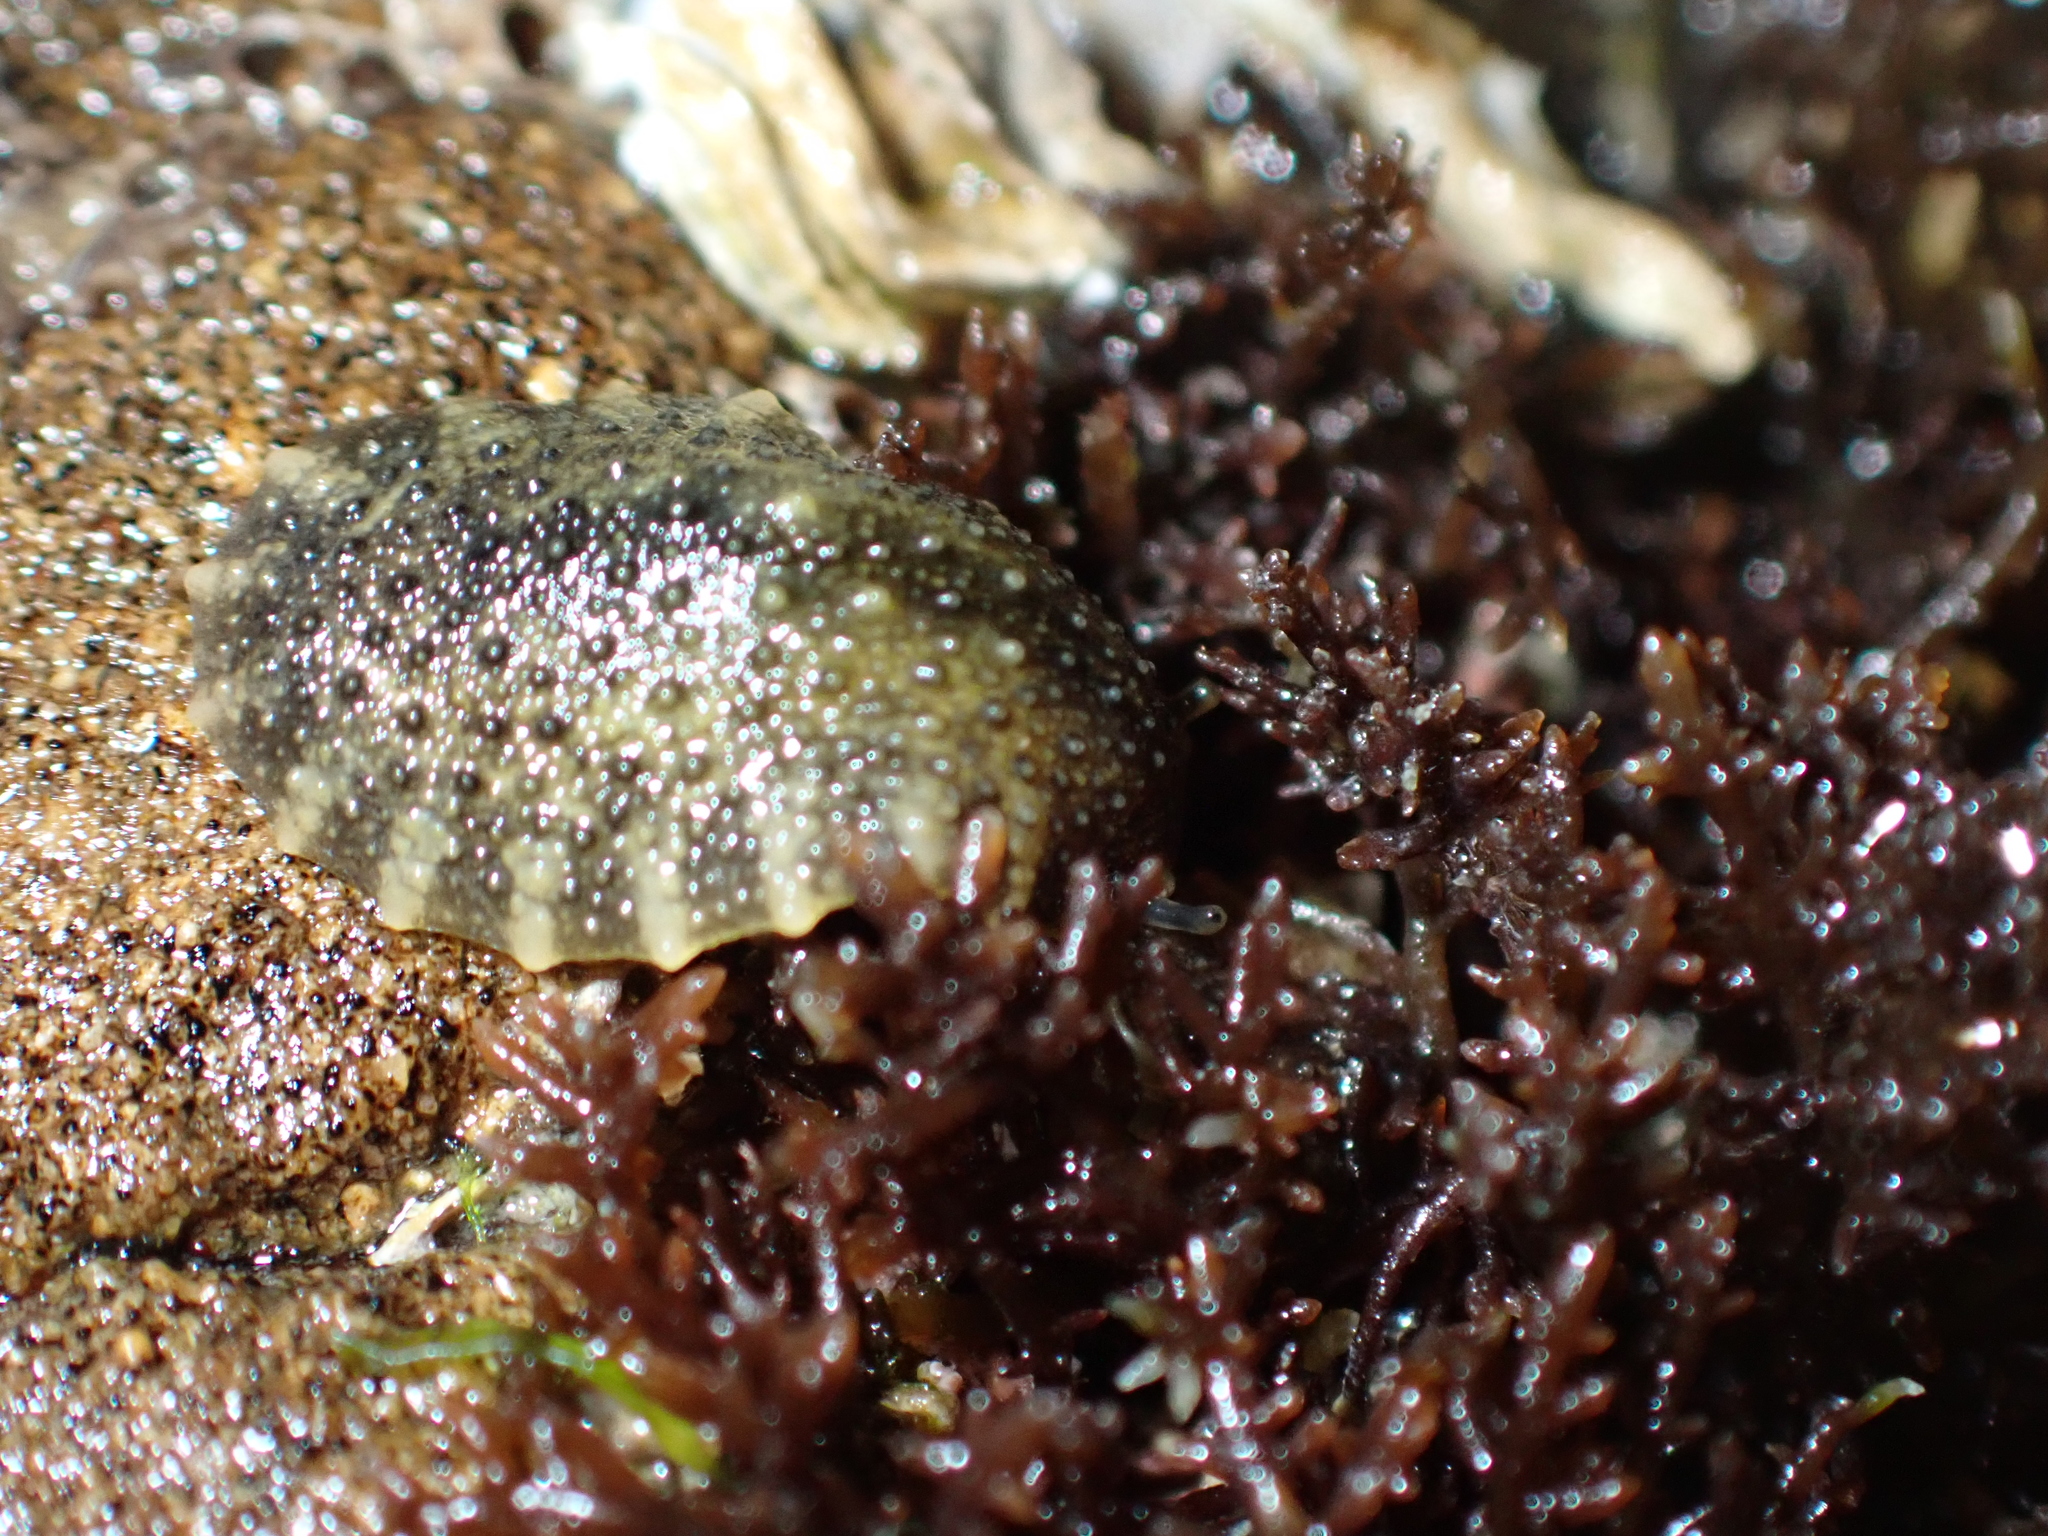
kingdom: Animalia
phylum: Mollusca
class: Gastropoda
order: Systellommatophora
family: Onchidiidae
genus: Onchidella
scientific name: Onchidella nigricans
